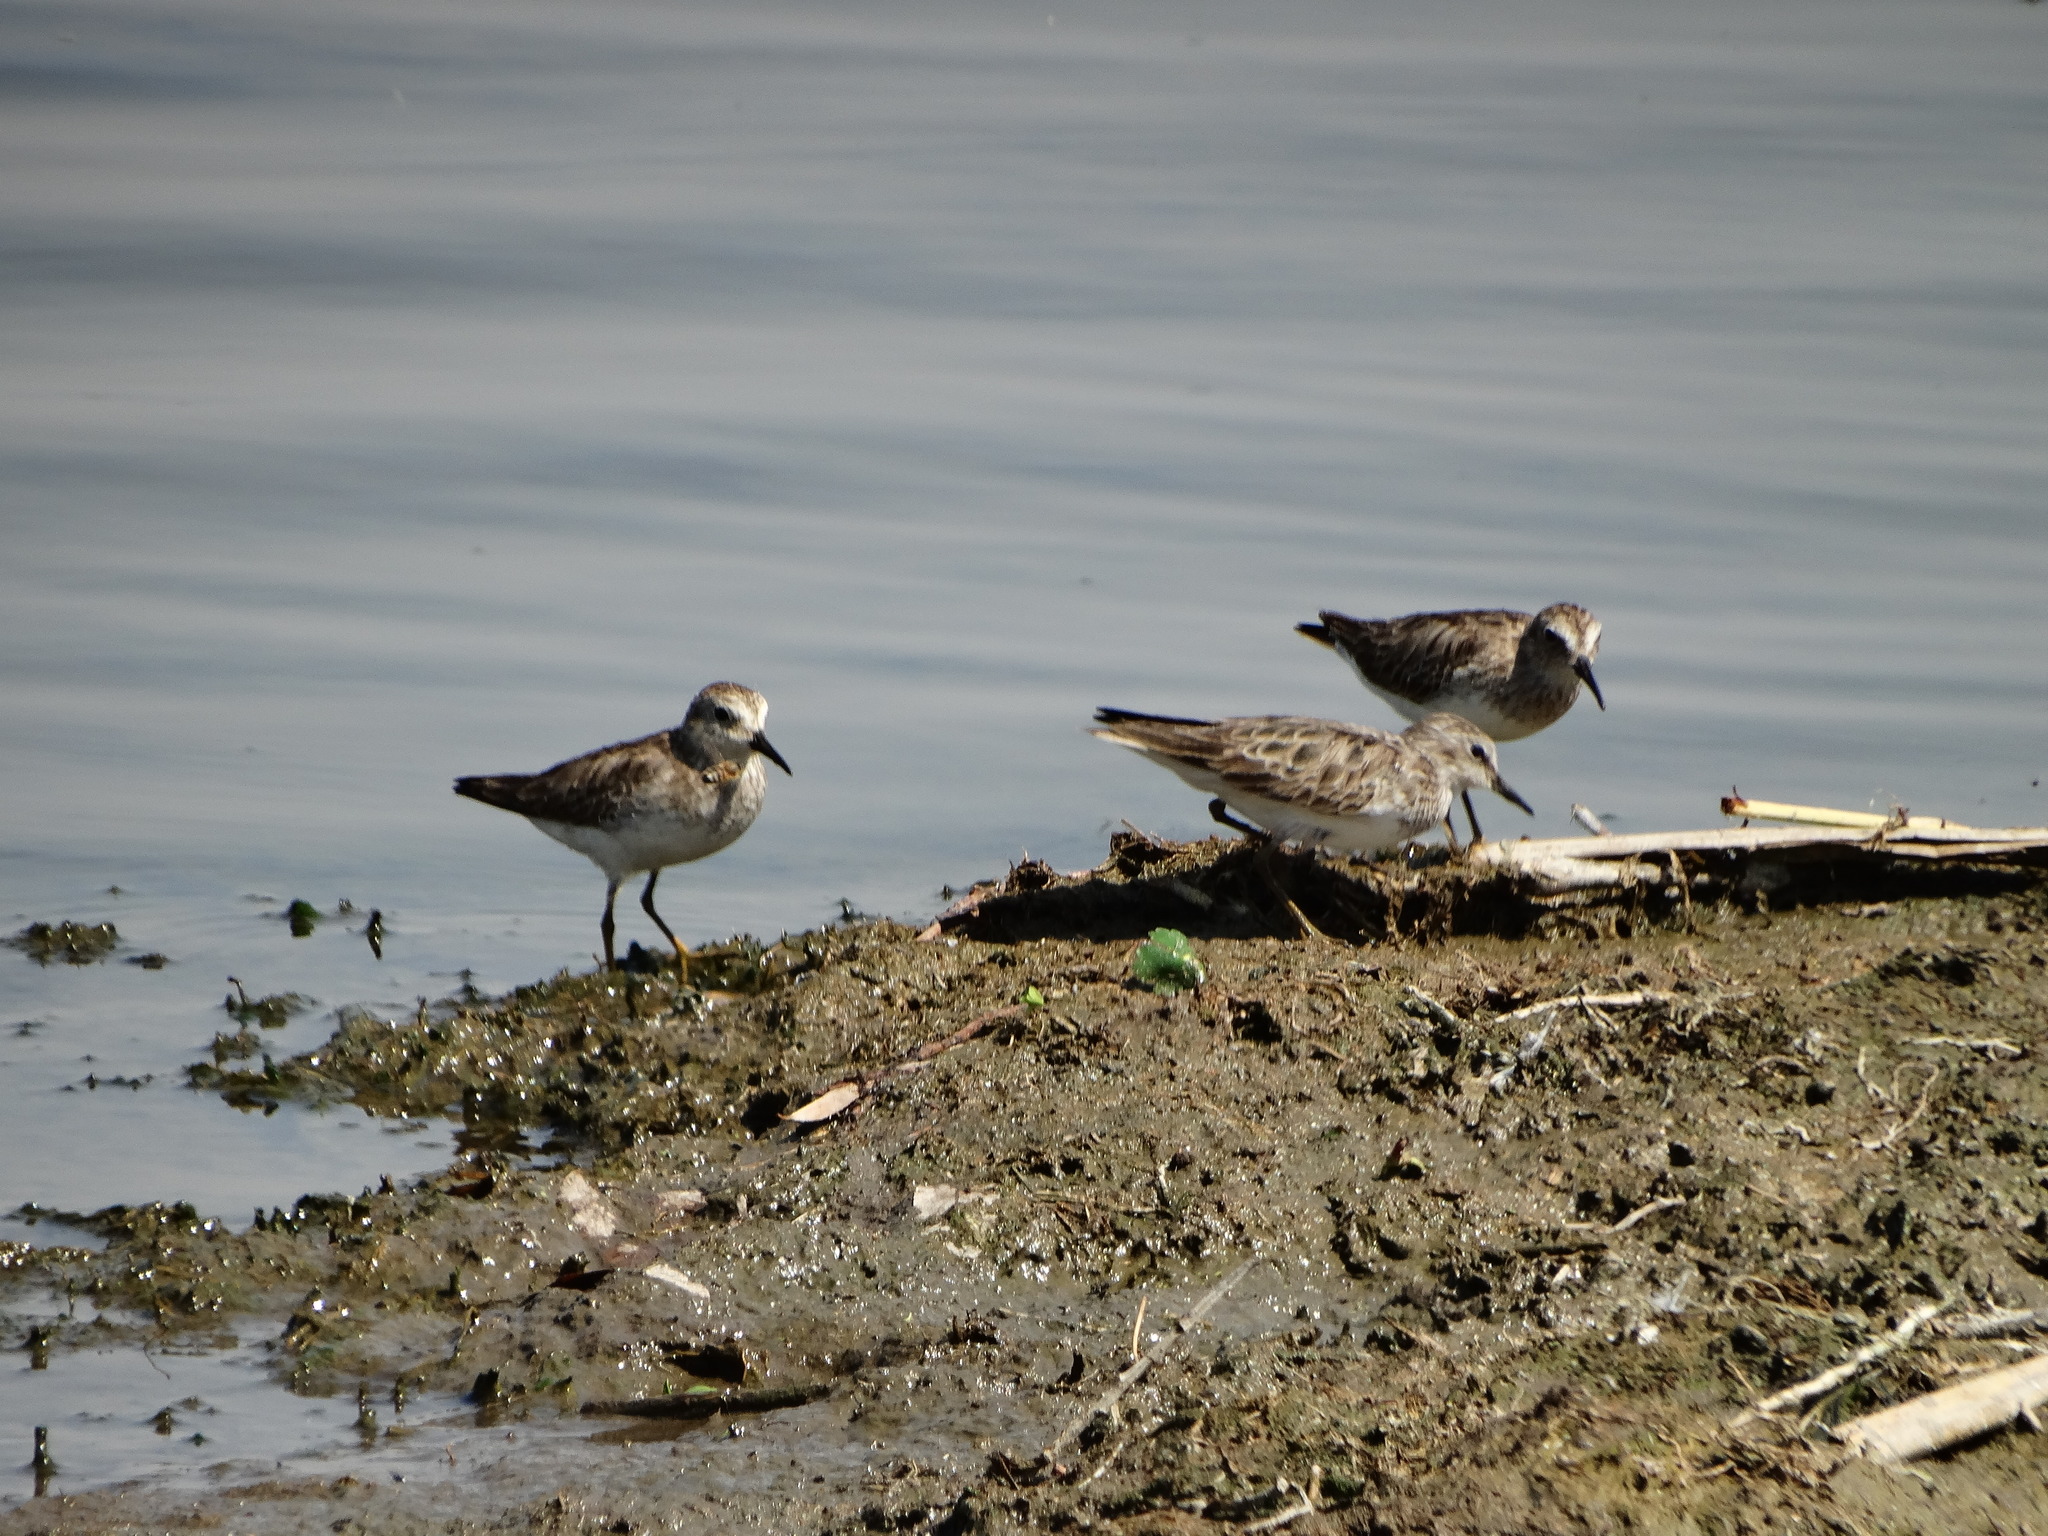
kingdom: Animalia
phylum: Chordata
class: Aves
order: Charadriiformes
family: Scolopacidae
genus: Calidris
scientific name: Calidris minutilla
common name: Least sandpiper
